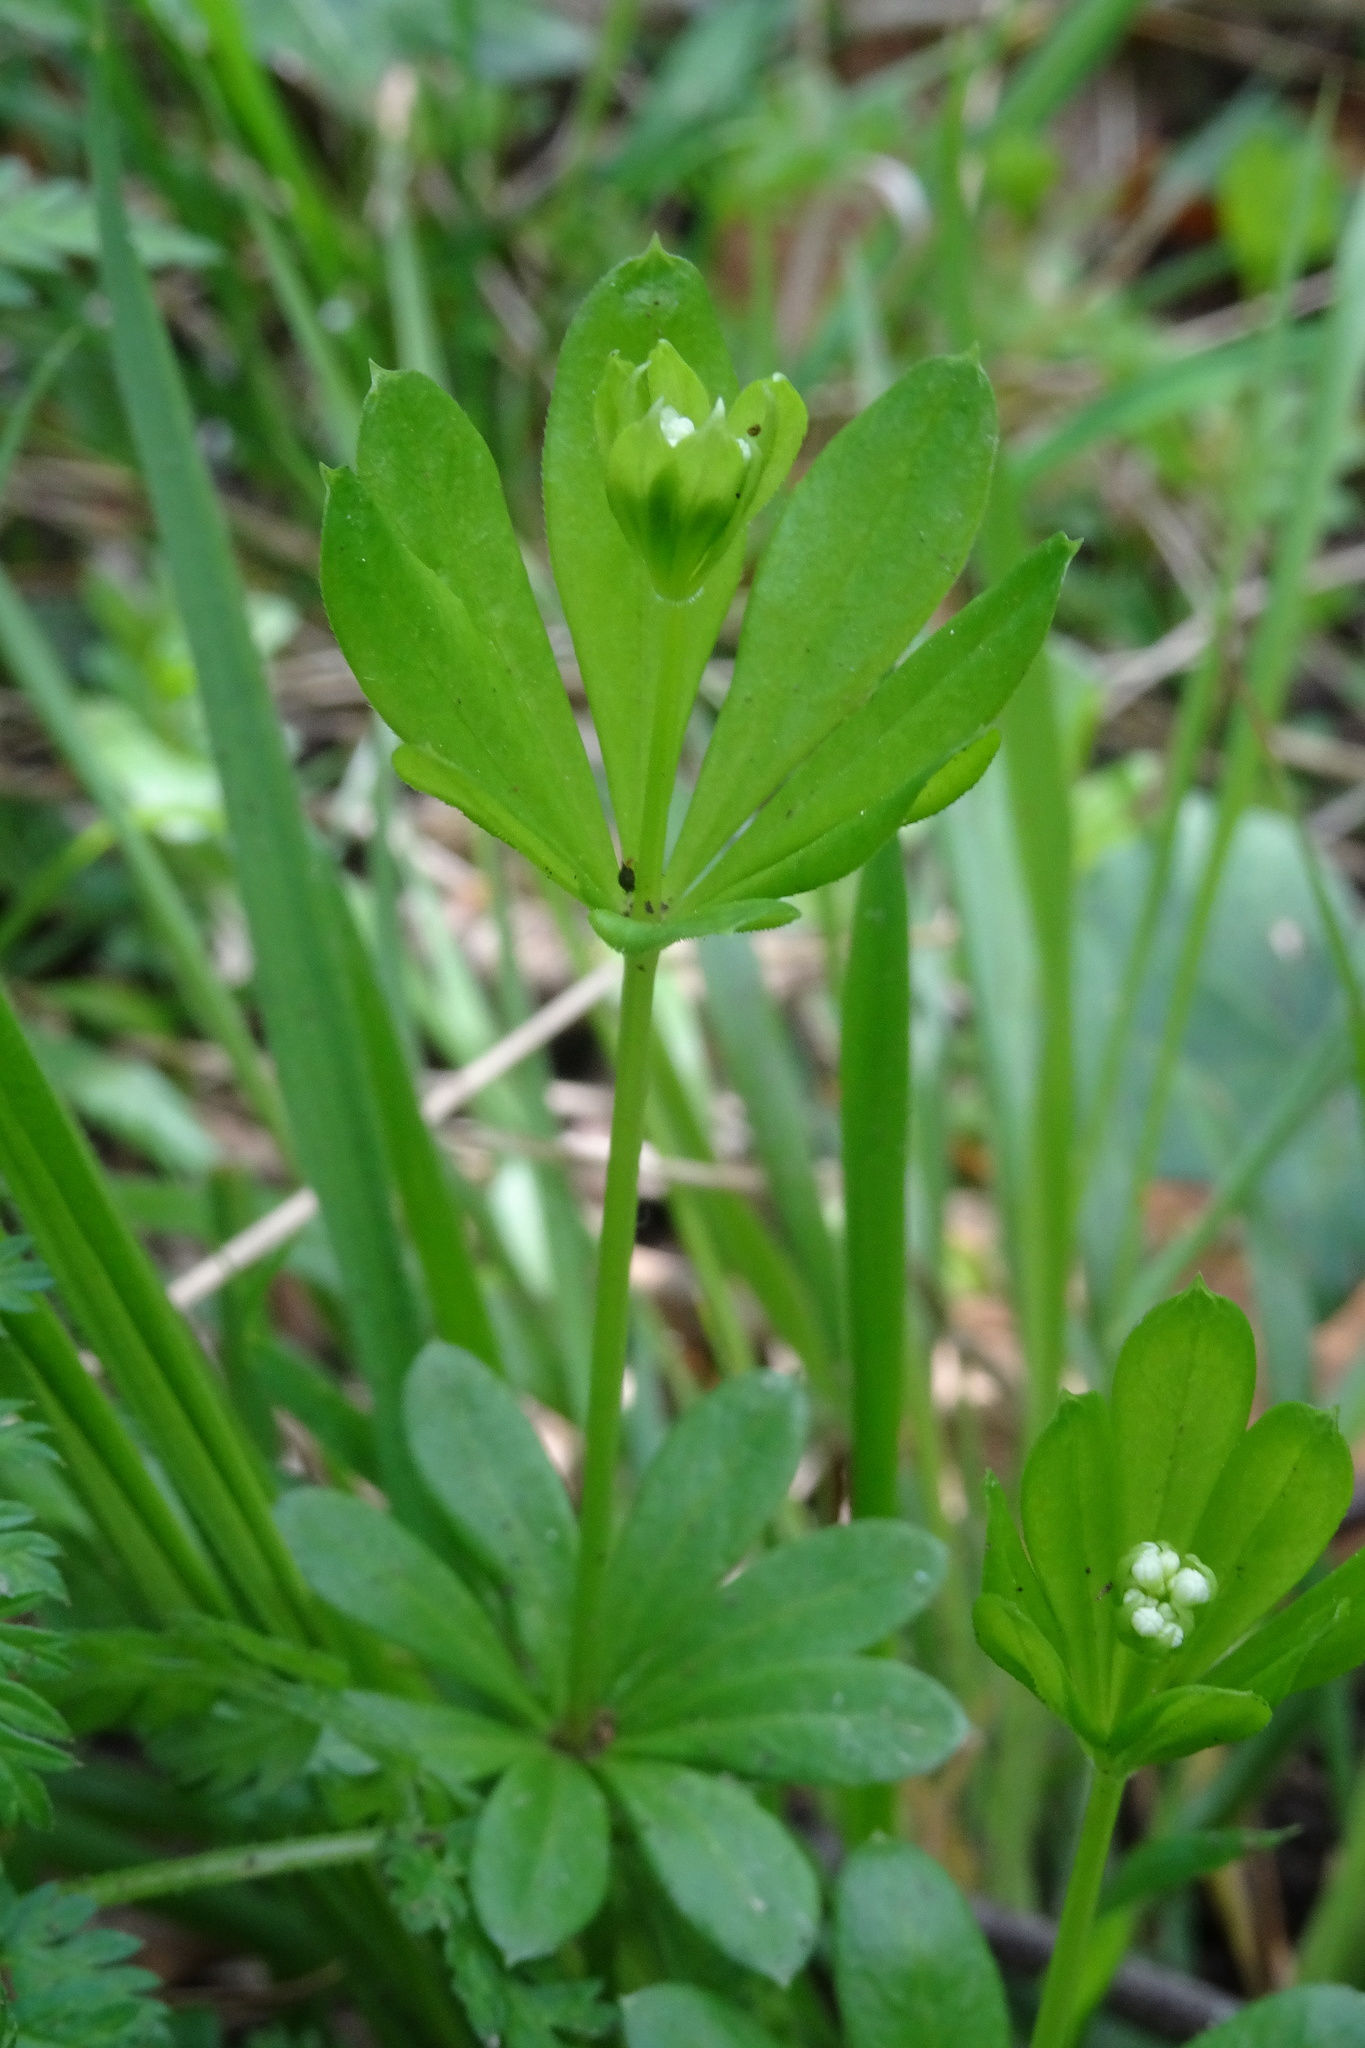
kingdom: Plantae
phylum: Tracheophyta
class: Magnoliopsida
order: Gentianales
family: Rubiaceae
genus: Galium
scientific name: Galium odoratum
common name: Sweet woodruff
